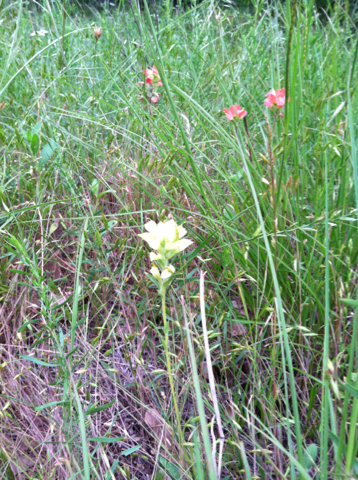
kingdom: Plantae
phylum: Tracheophyta
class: Magnoliopsida
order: Lamiales
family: Orobanchaceae
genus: Castilleja
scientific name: Castilleja indivisa
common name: Texas paintbrush
